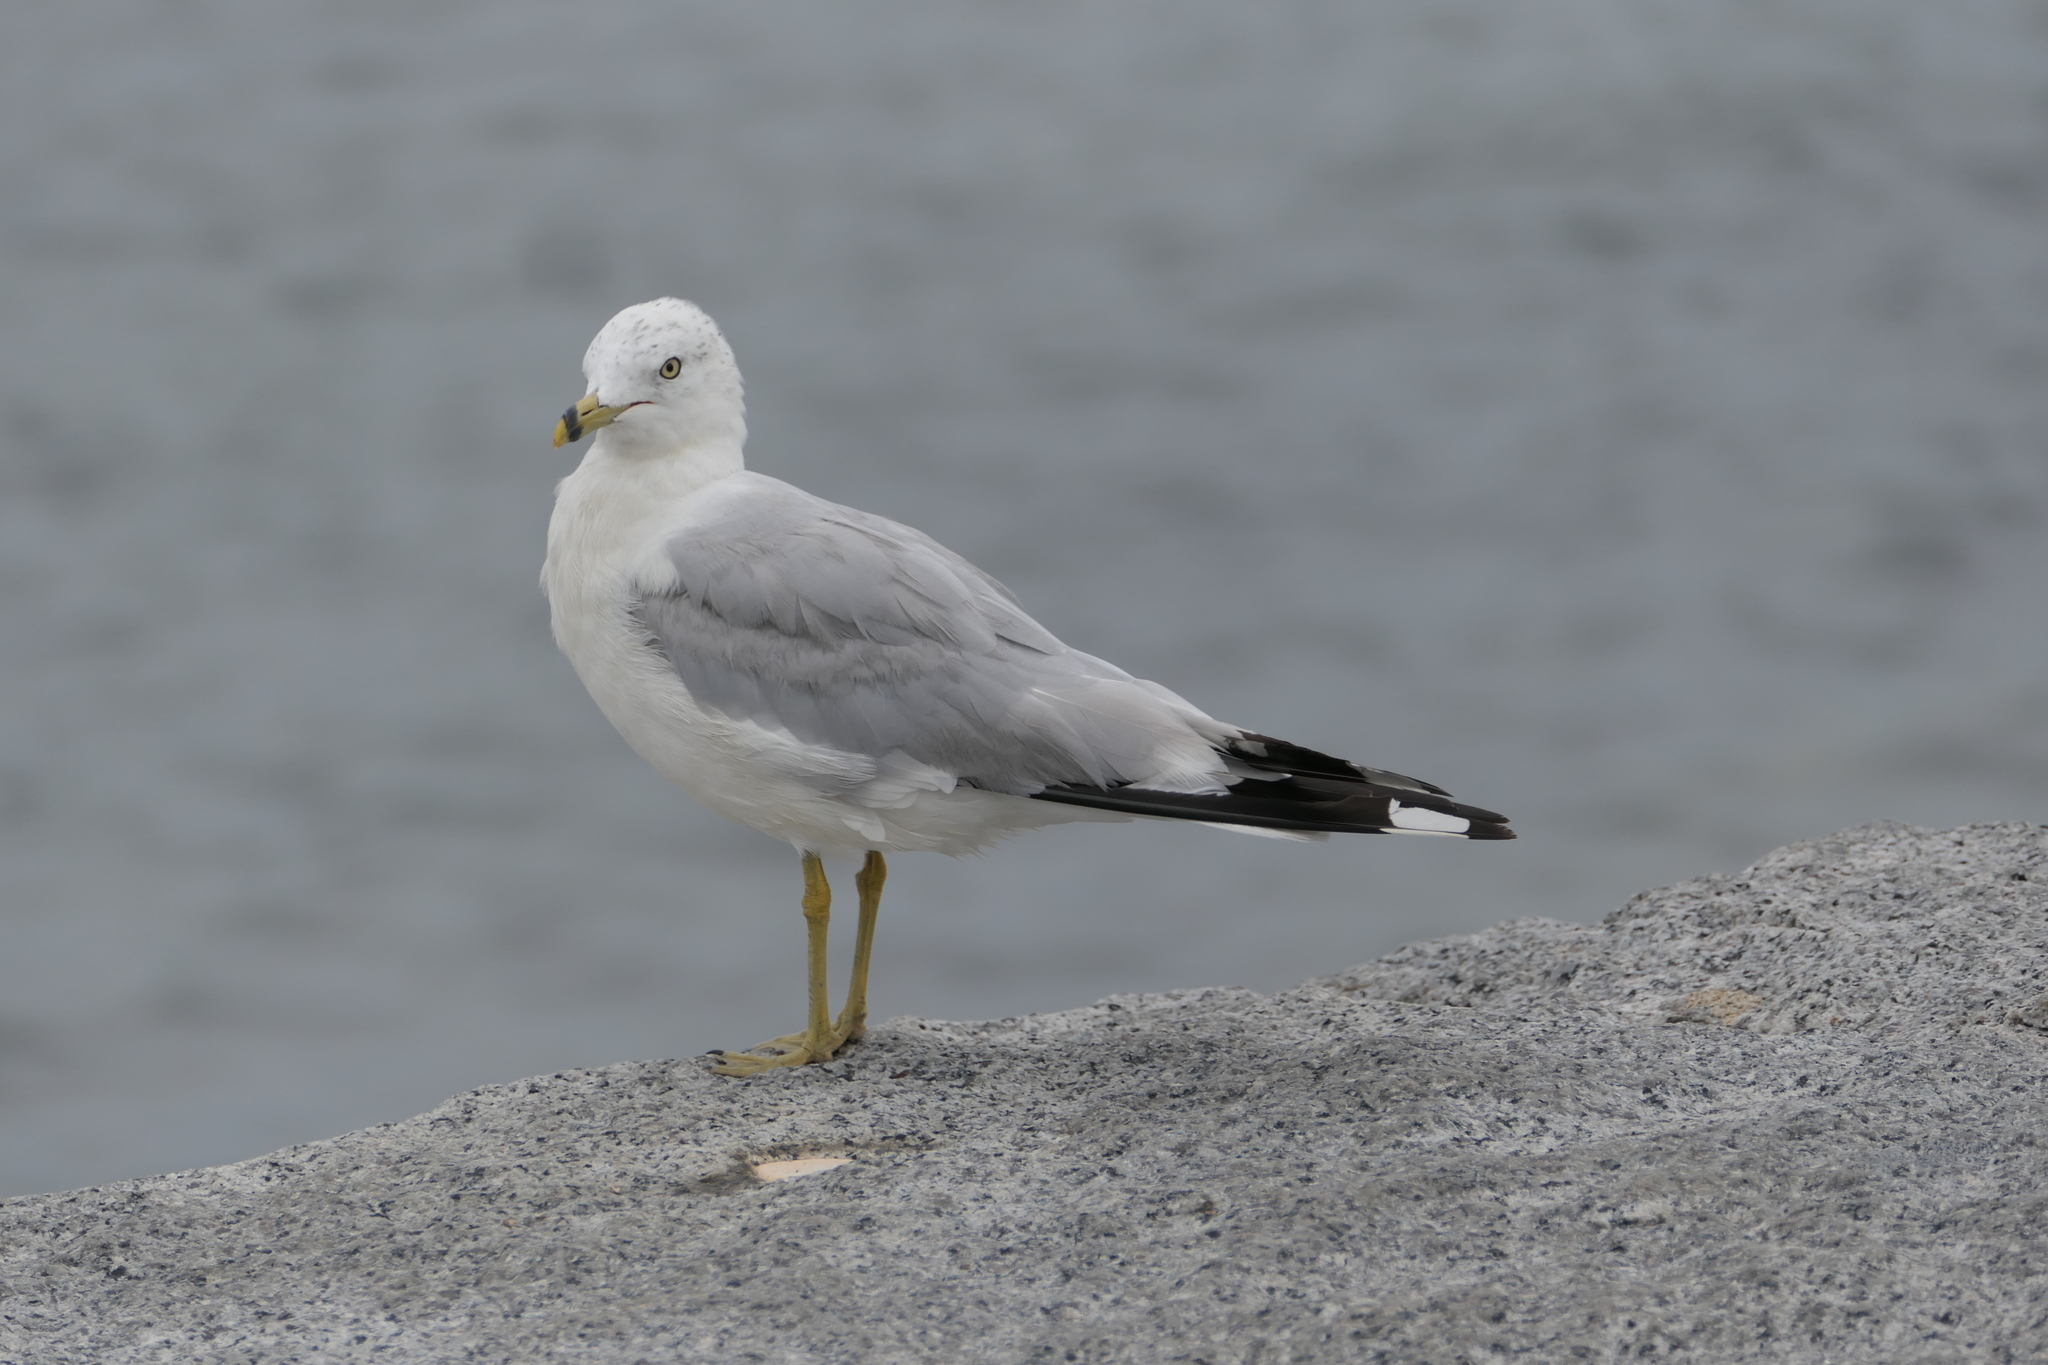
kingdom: Animalia
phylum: Chordata
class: Aves
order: Charadriiformes
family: Laridae
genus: Larus
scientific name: Larus delawarensis
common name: Ring-billed gull
